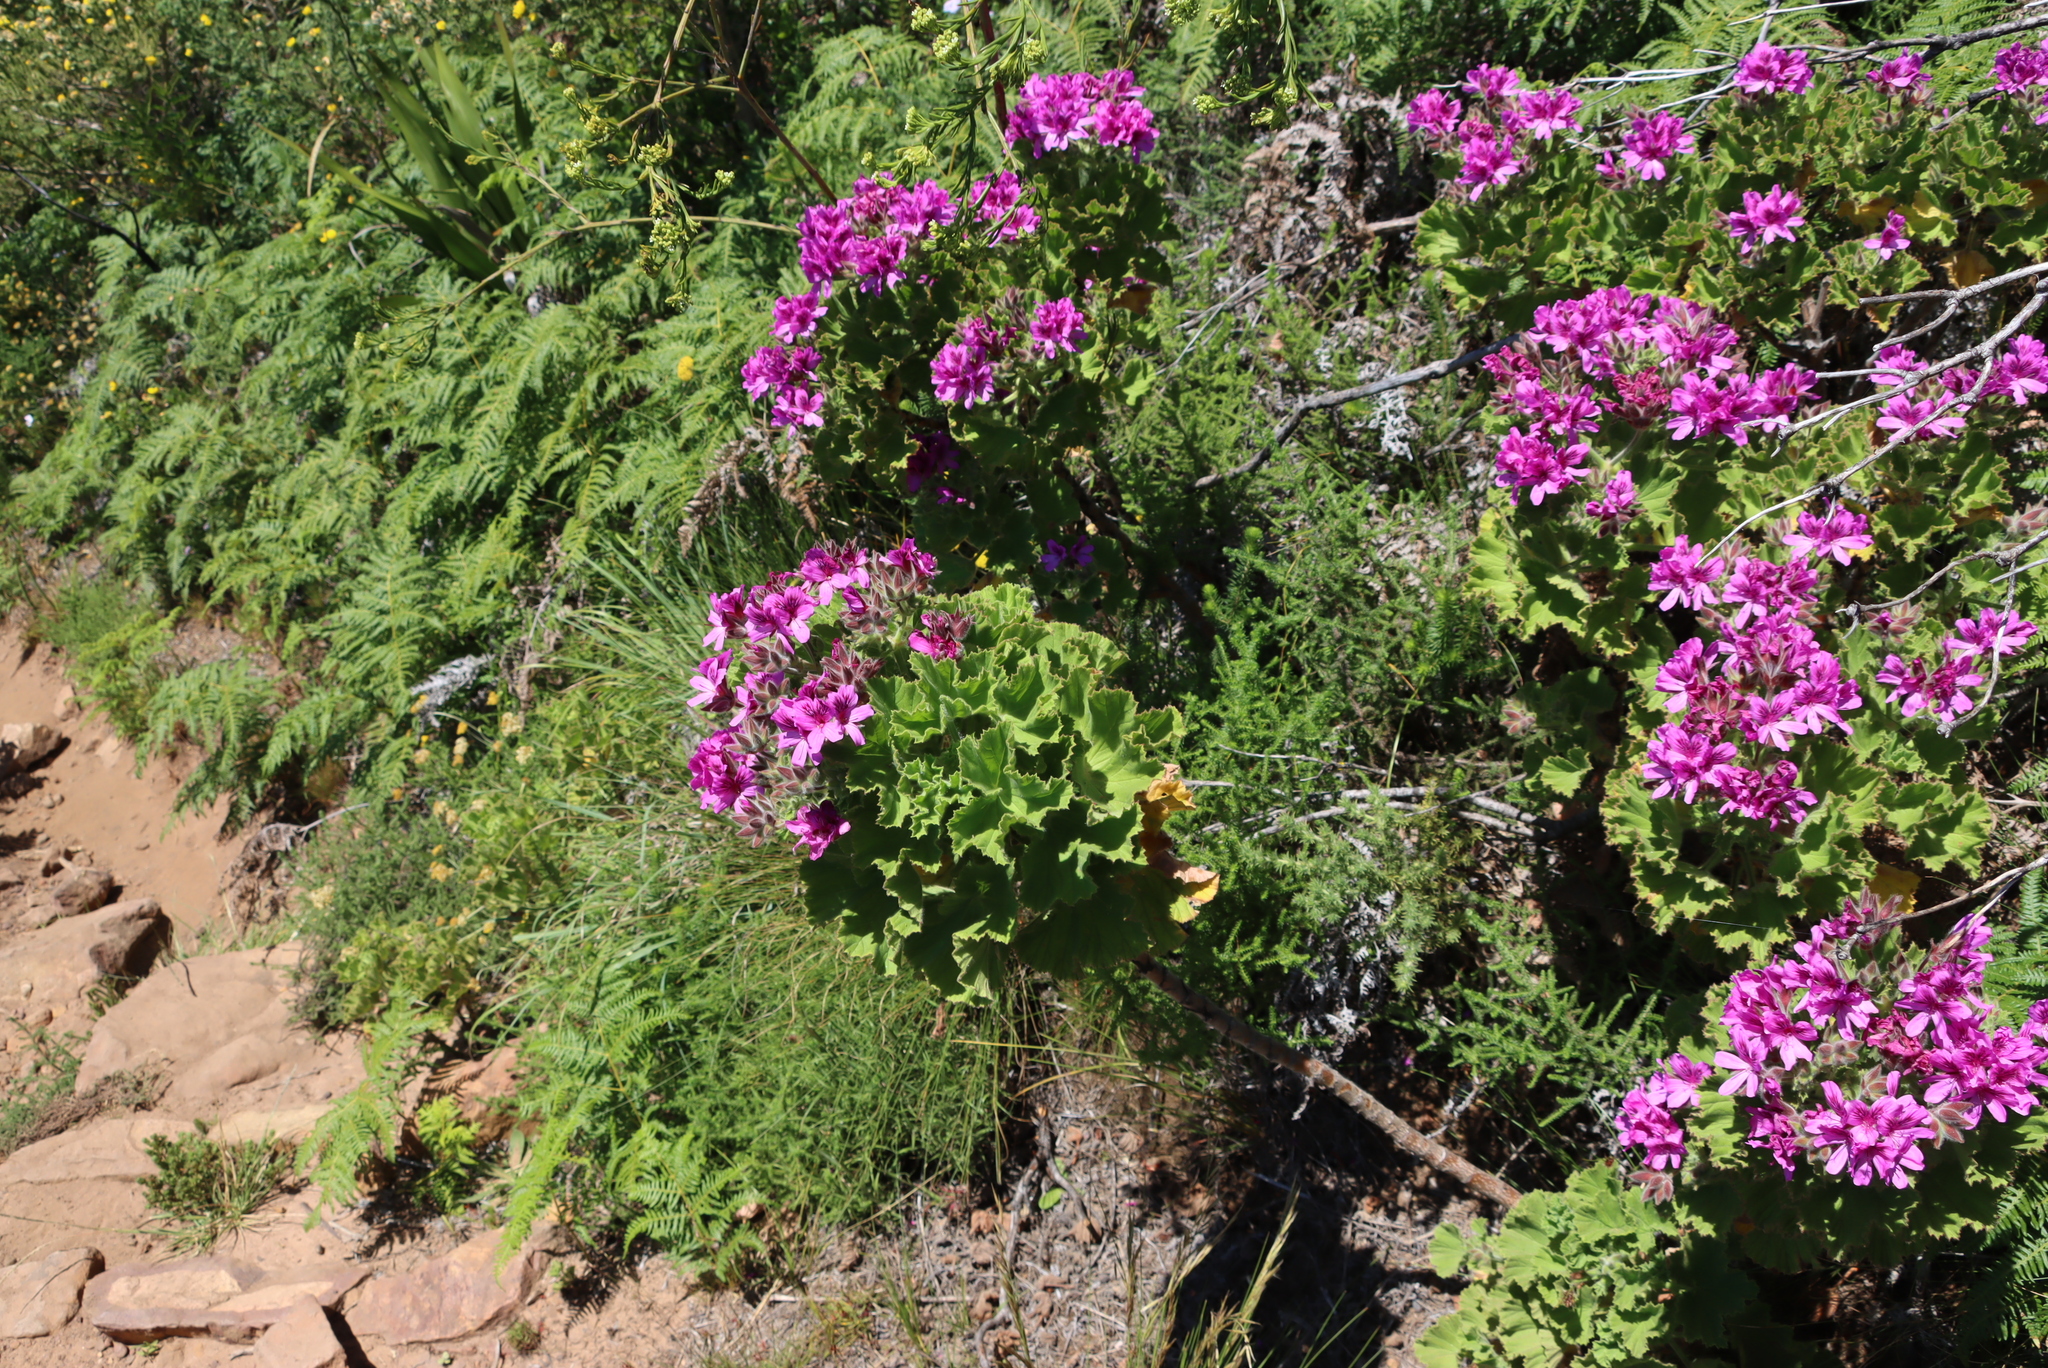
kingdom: Plantae
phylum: Tracheophyta
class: Magnoliopsida
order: Geraniales
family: Geraniaceae
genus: Pelargonium
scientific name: Pelargonium cucullatum
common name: Tree pelargonium
